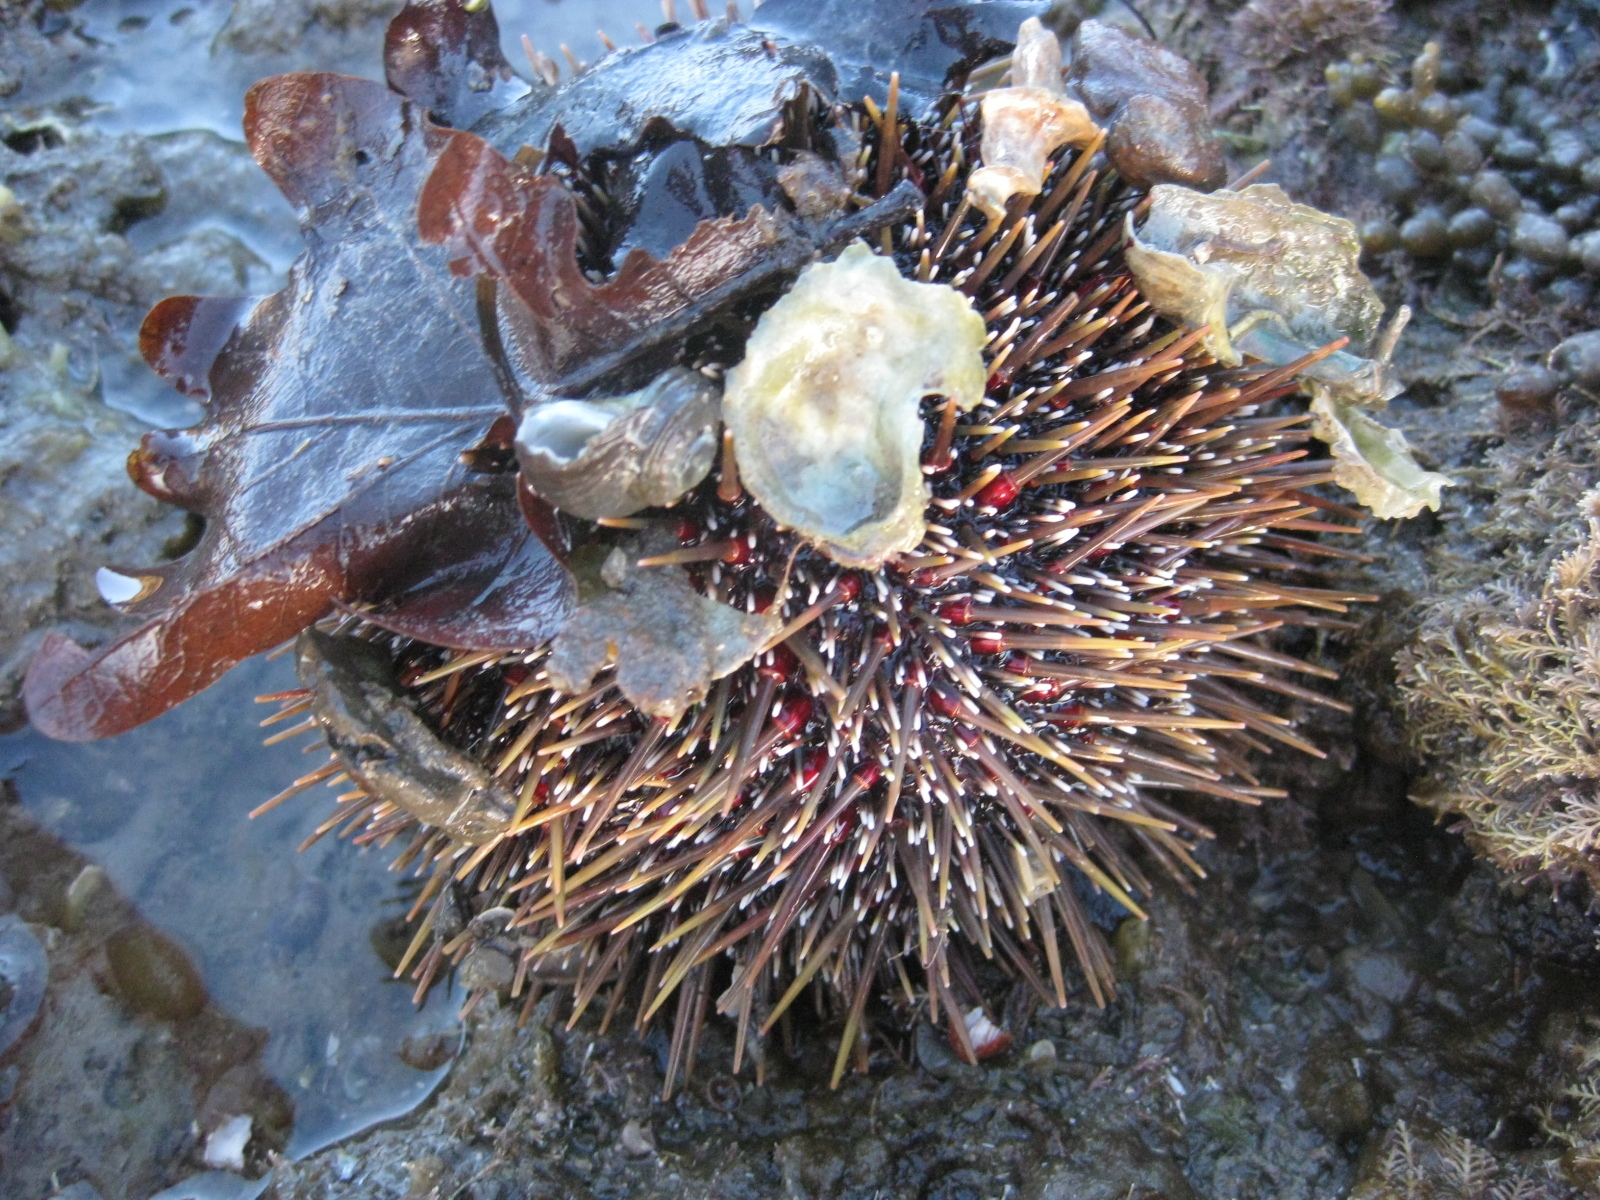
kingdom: Animalia
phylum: Echinodermata
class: Echinoidea
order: Camarodonta
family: Echinometridae
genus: Evechinus
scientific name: Evechinus chloroticus
